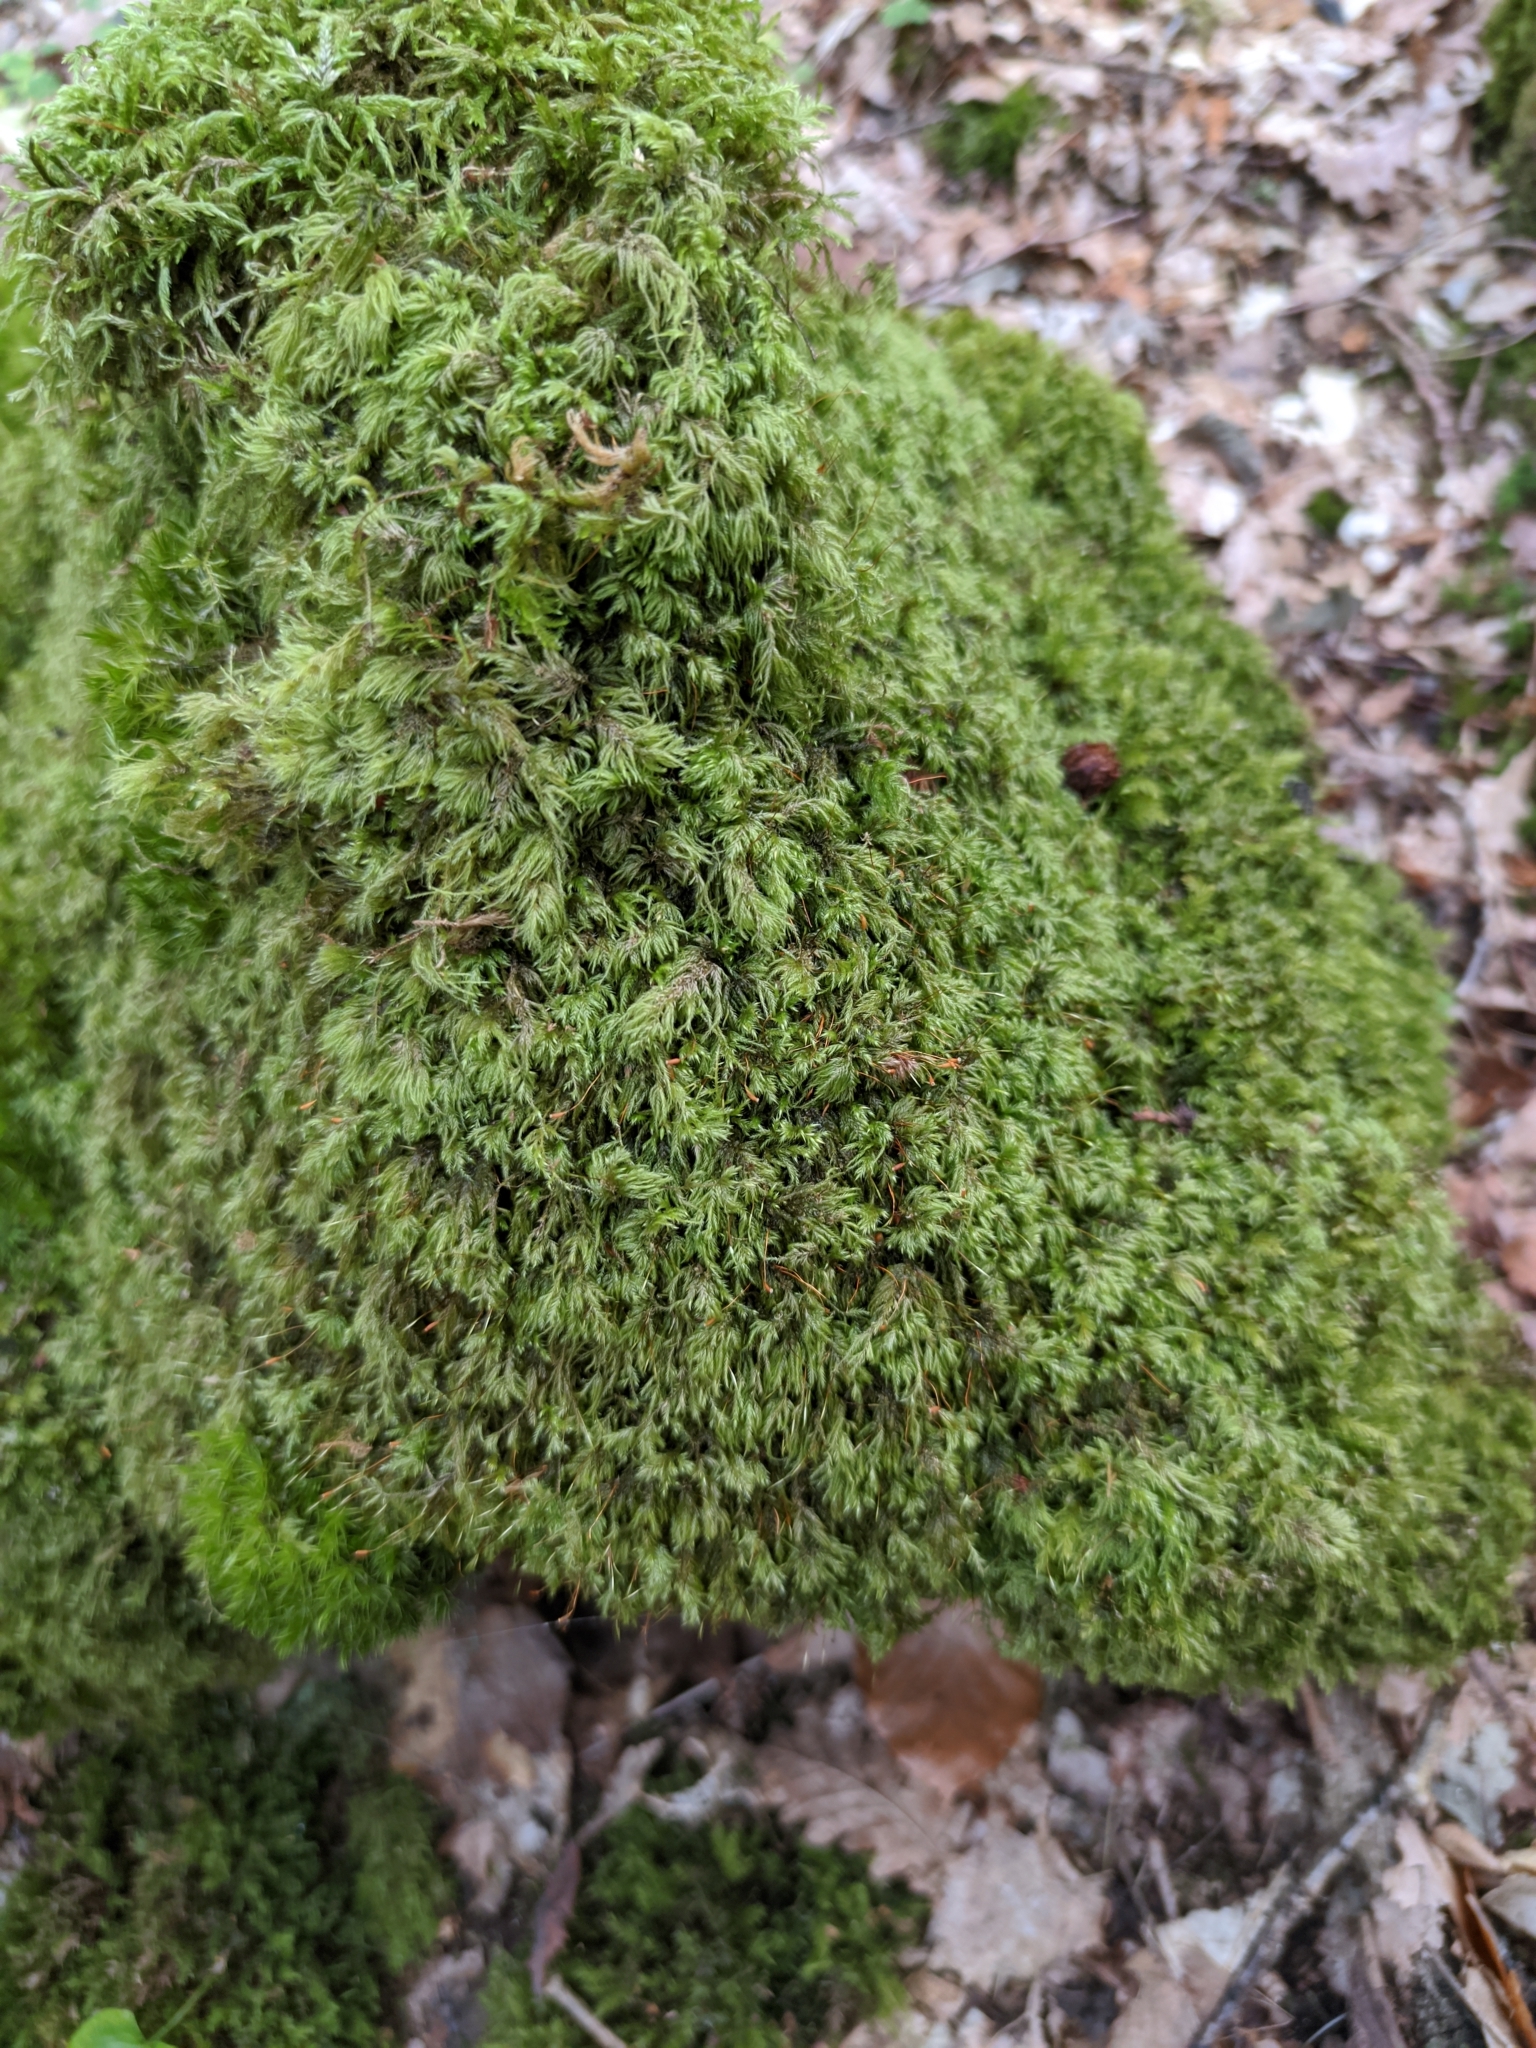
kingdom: Plantae
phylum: Bryophyta
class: Bryopsida
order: Hypnales
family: Lembophyllaceae
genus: Pseudisothecium
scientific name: Pseudisothecium myosuroides
